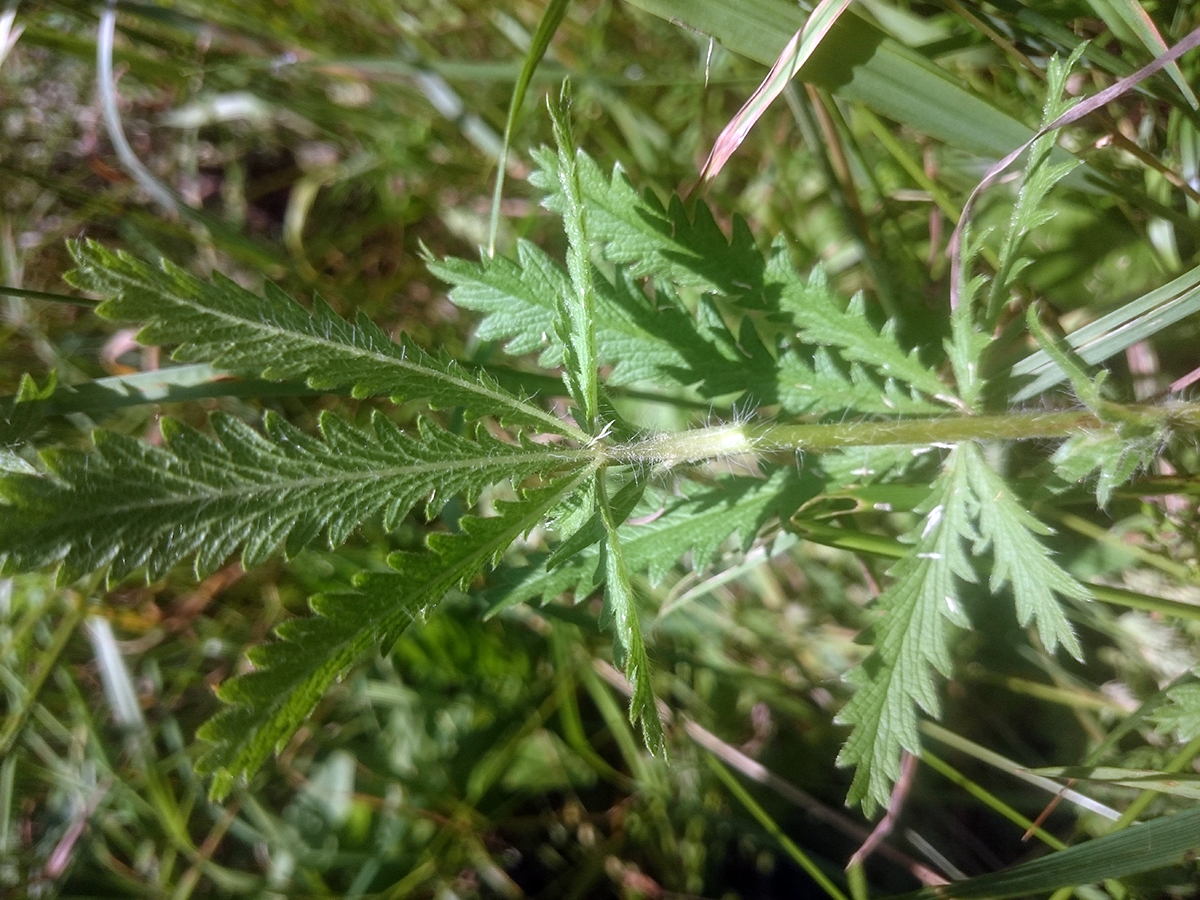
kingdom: Plantae
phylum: Tracheophyta
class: Magnoliopsida
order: Rosales
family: Rosaceae
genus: Potentilla
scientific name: Potentilla recta
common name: Sulphur cinquefoil
